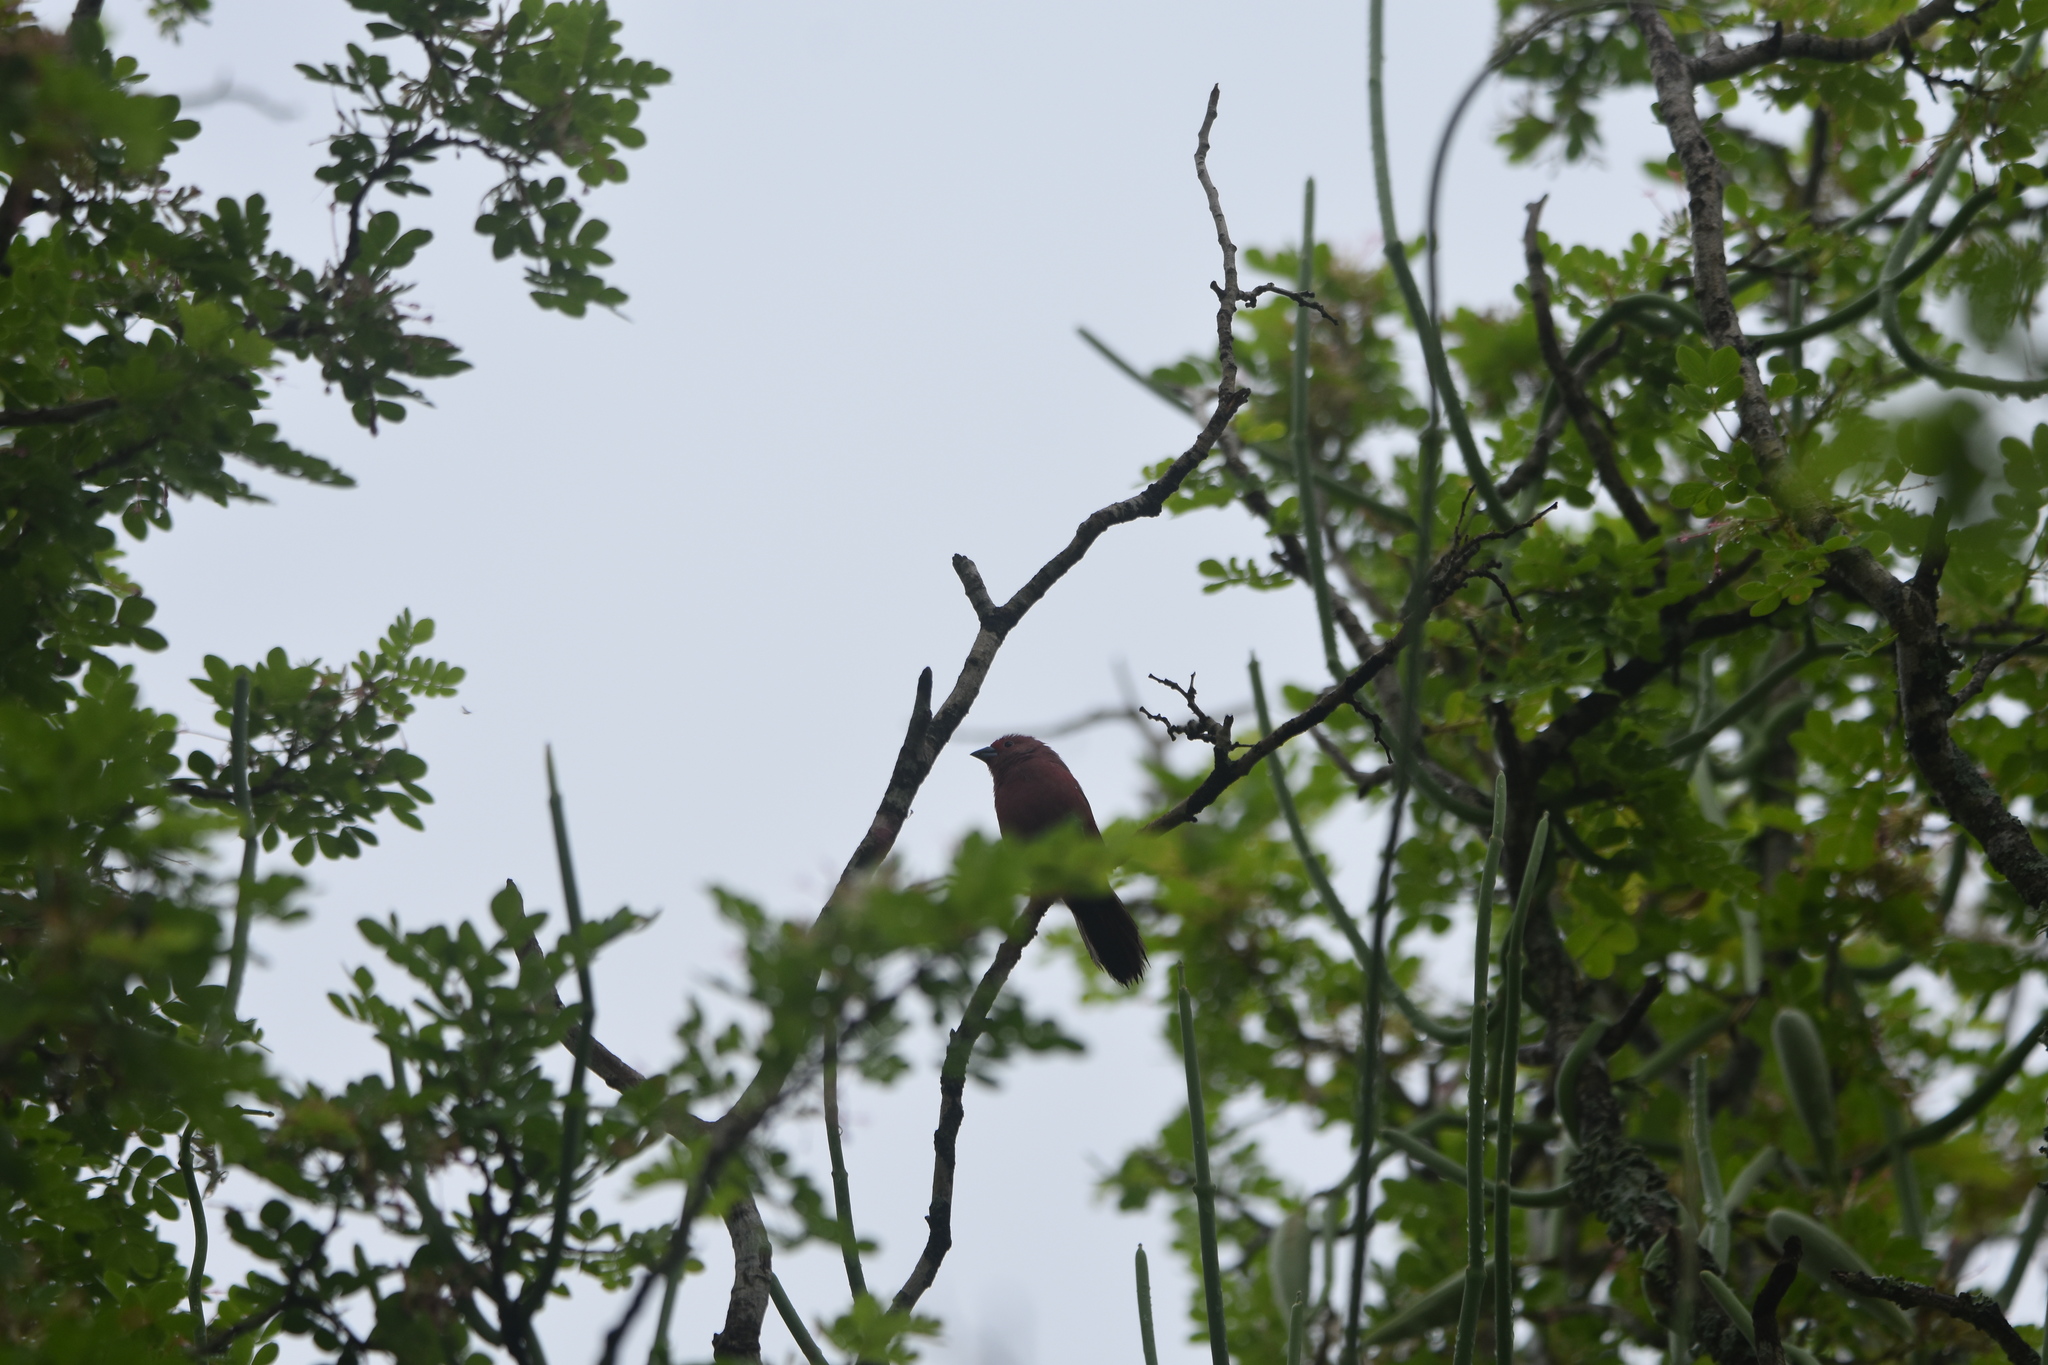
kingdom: Animalia
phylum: Chordata
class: Aves
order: Passeriformes
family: Estrildidae
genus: Lagonosticta
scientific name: Lagonosticta rubricata
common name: African firefinch
